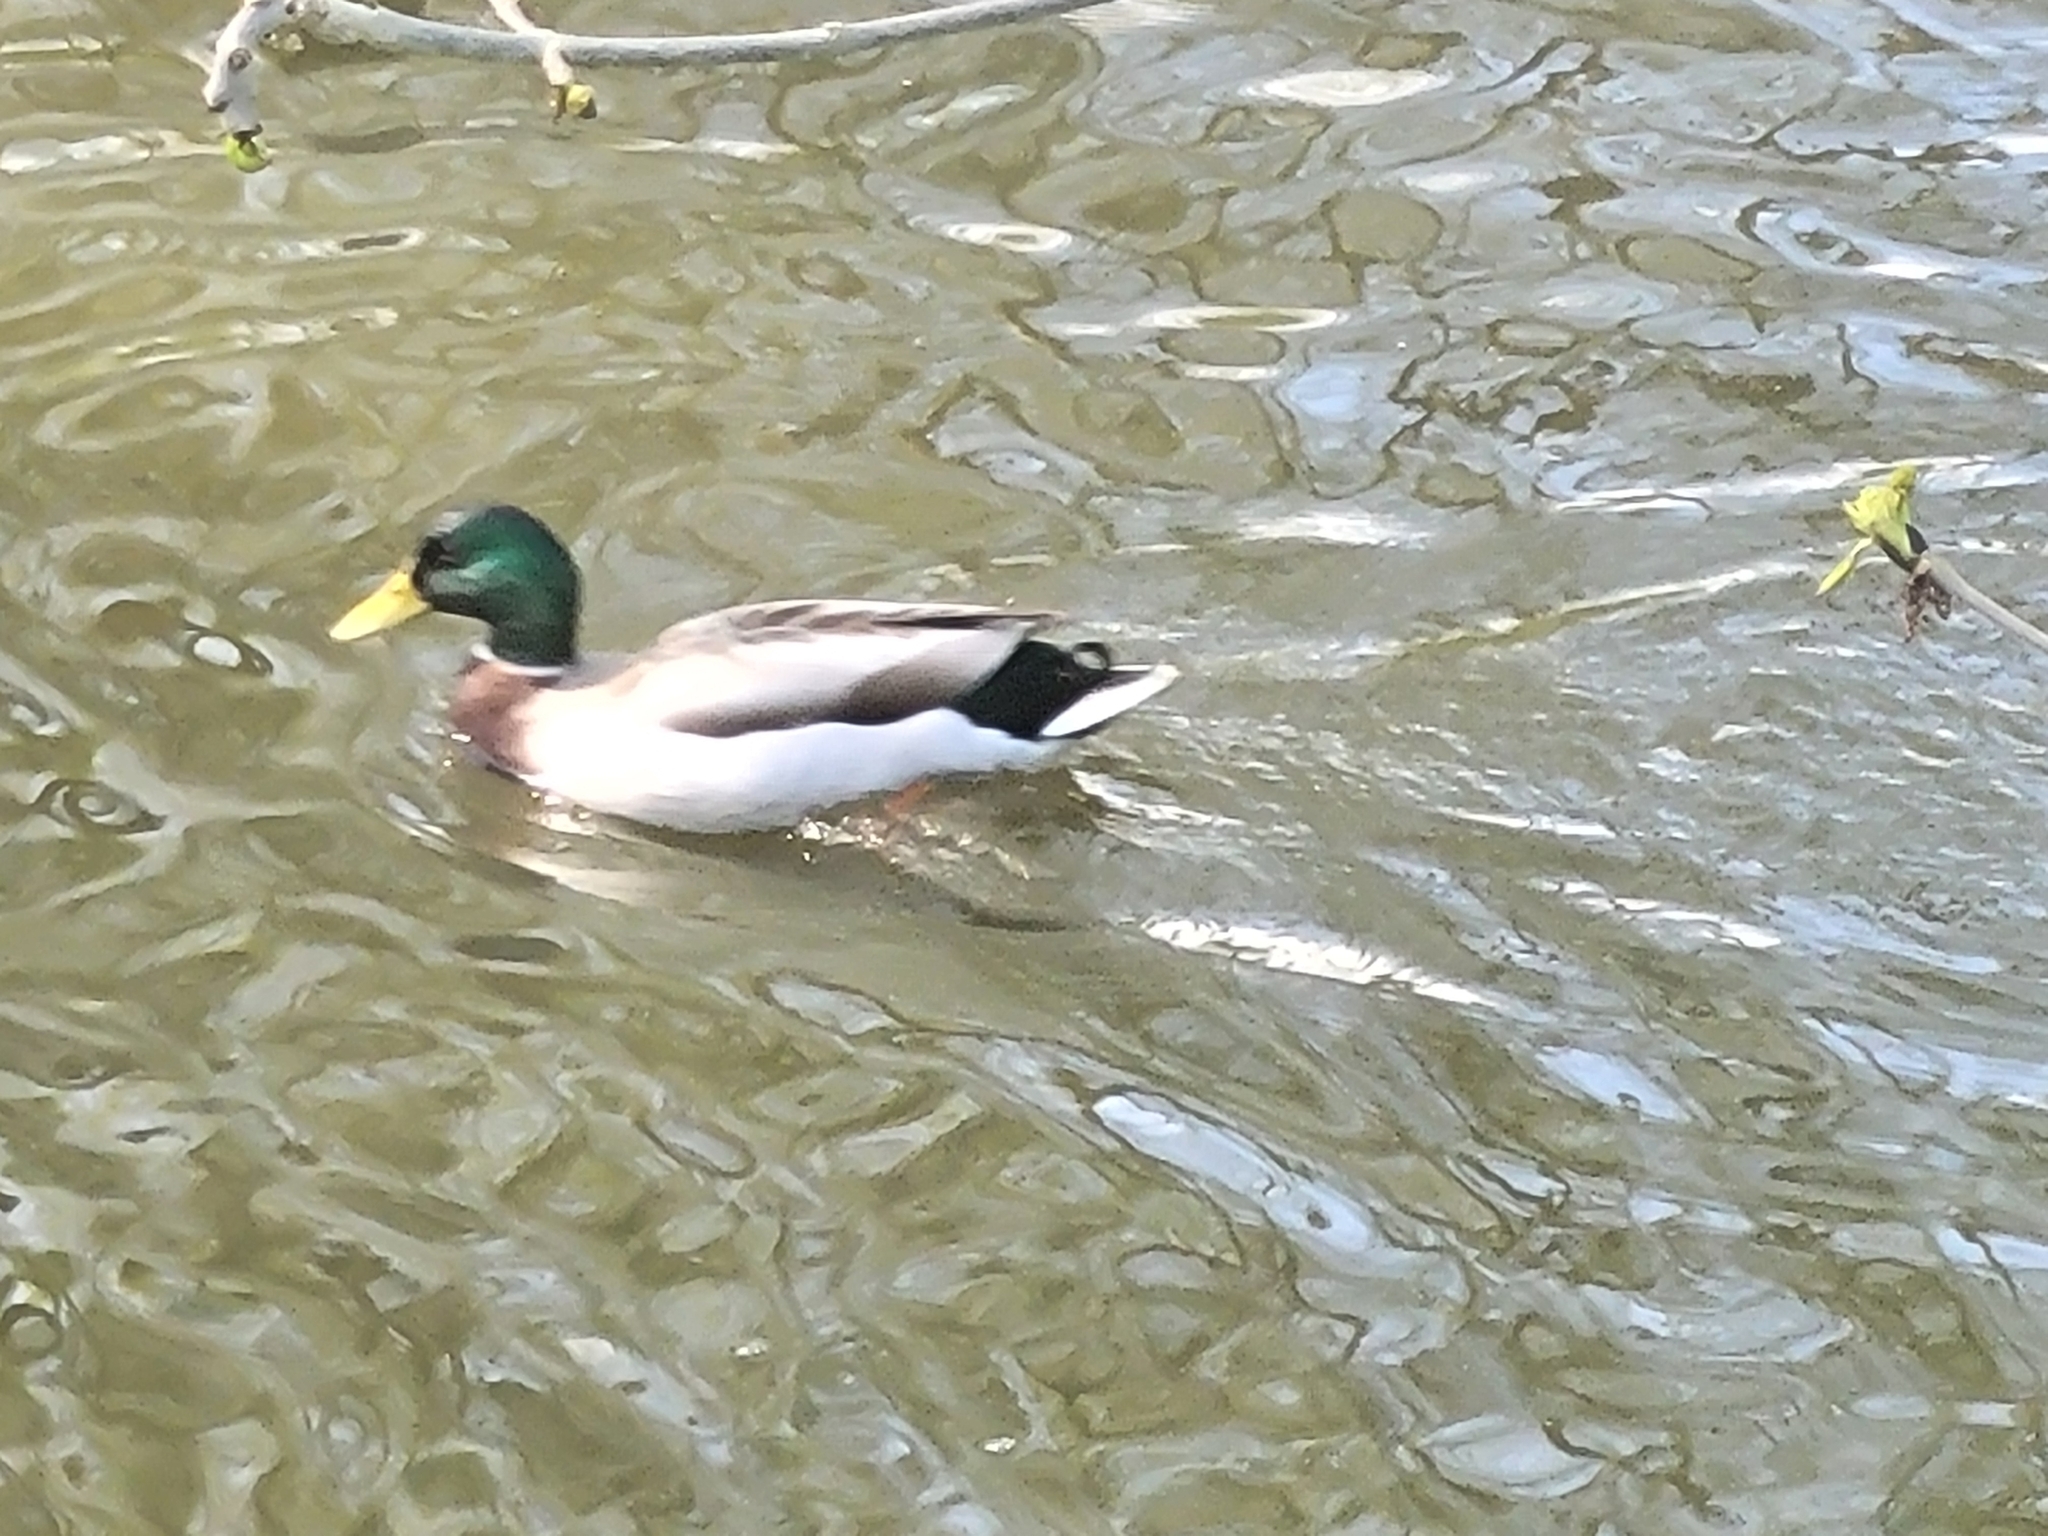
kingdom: Animalia
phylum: Chordata
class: Aves
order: Anseriformes
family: Anatidae
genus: Anas
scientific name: Anas platyrhynchos
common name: Mallard
